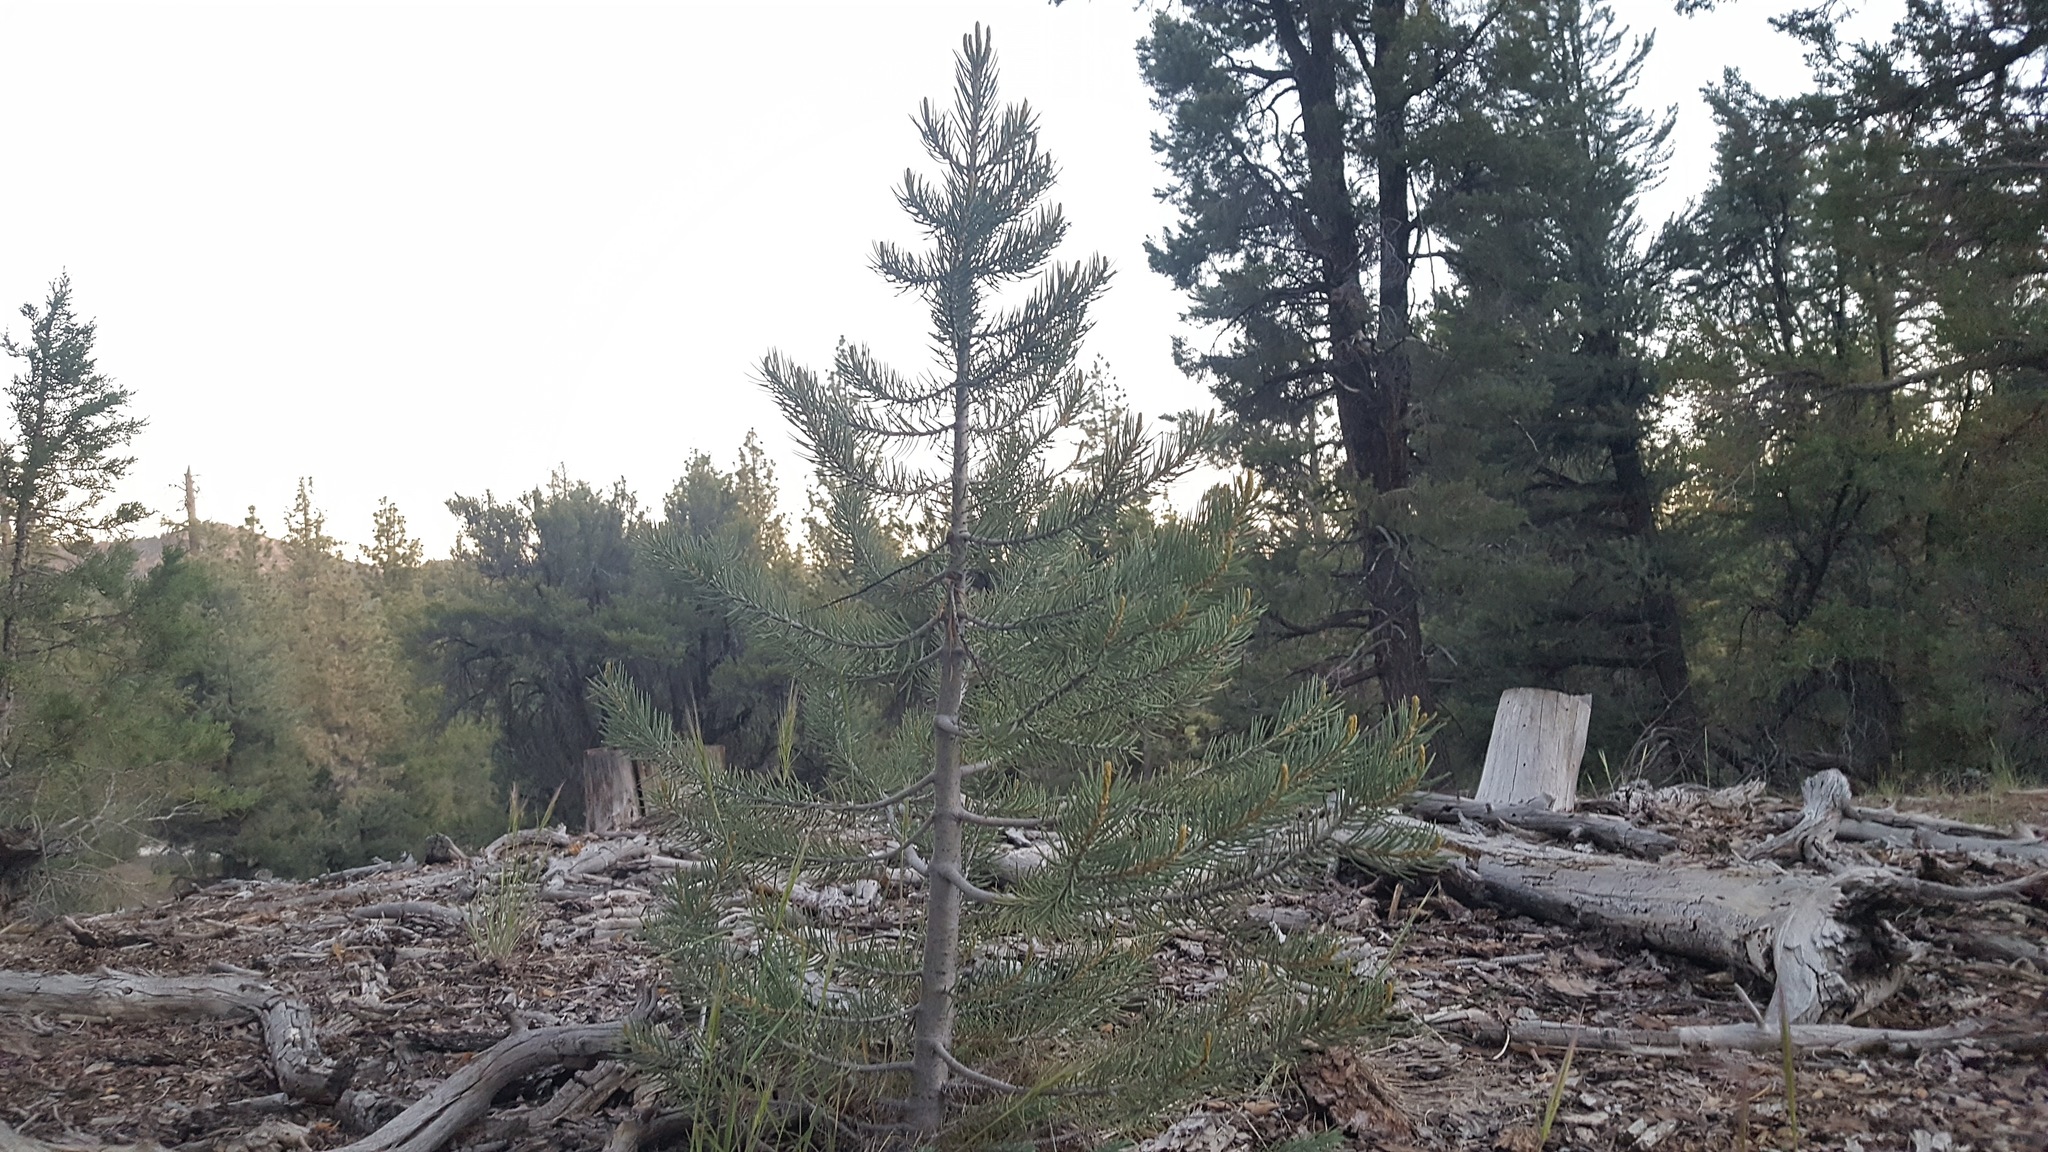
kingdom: Plantae
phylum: Tracheophyta
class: Pinopsida
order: Pinales
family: Pinaceae
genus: Pinus
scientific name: Pinus monophylla
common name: One-leaved nut pine
